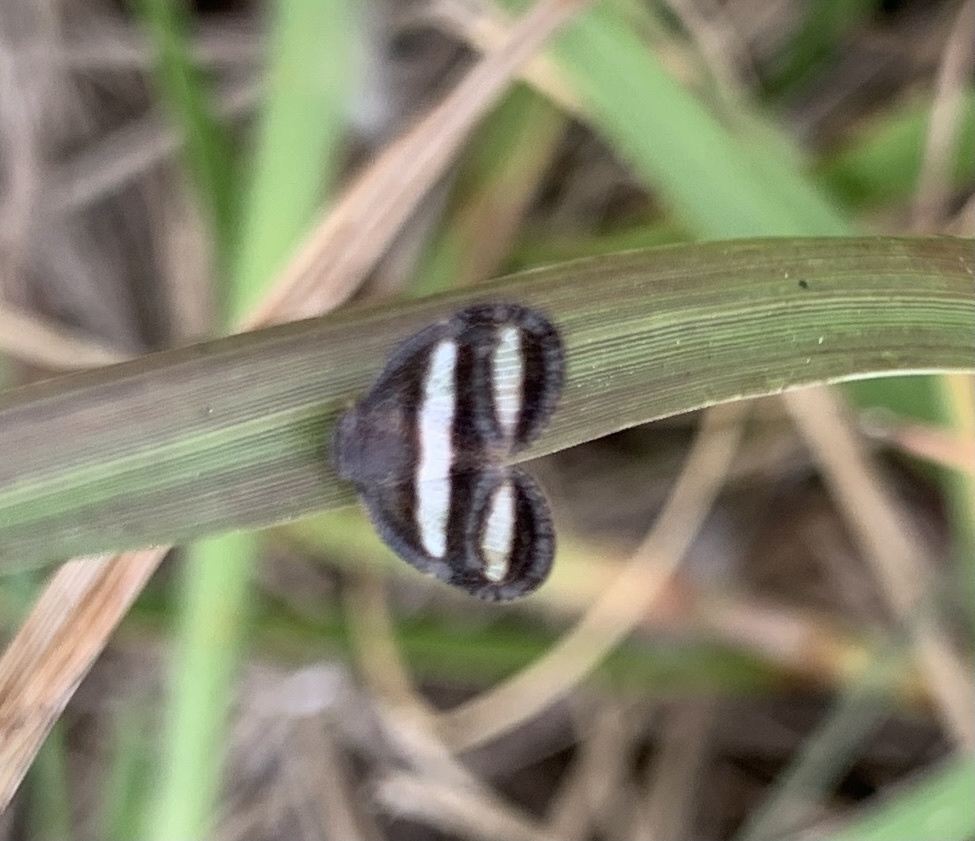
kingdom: Animalia
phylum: Arthropoda
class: Insecta
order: Hemiptera
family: Ricaniidae
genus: Mulvia
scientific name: Mulvia albizona
